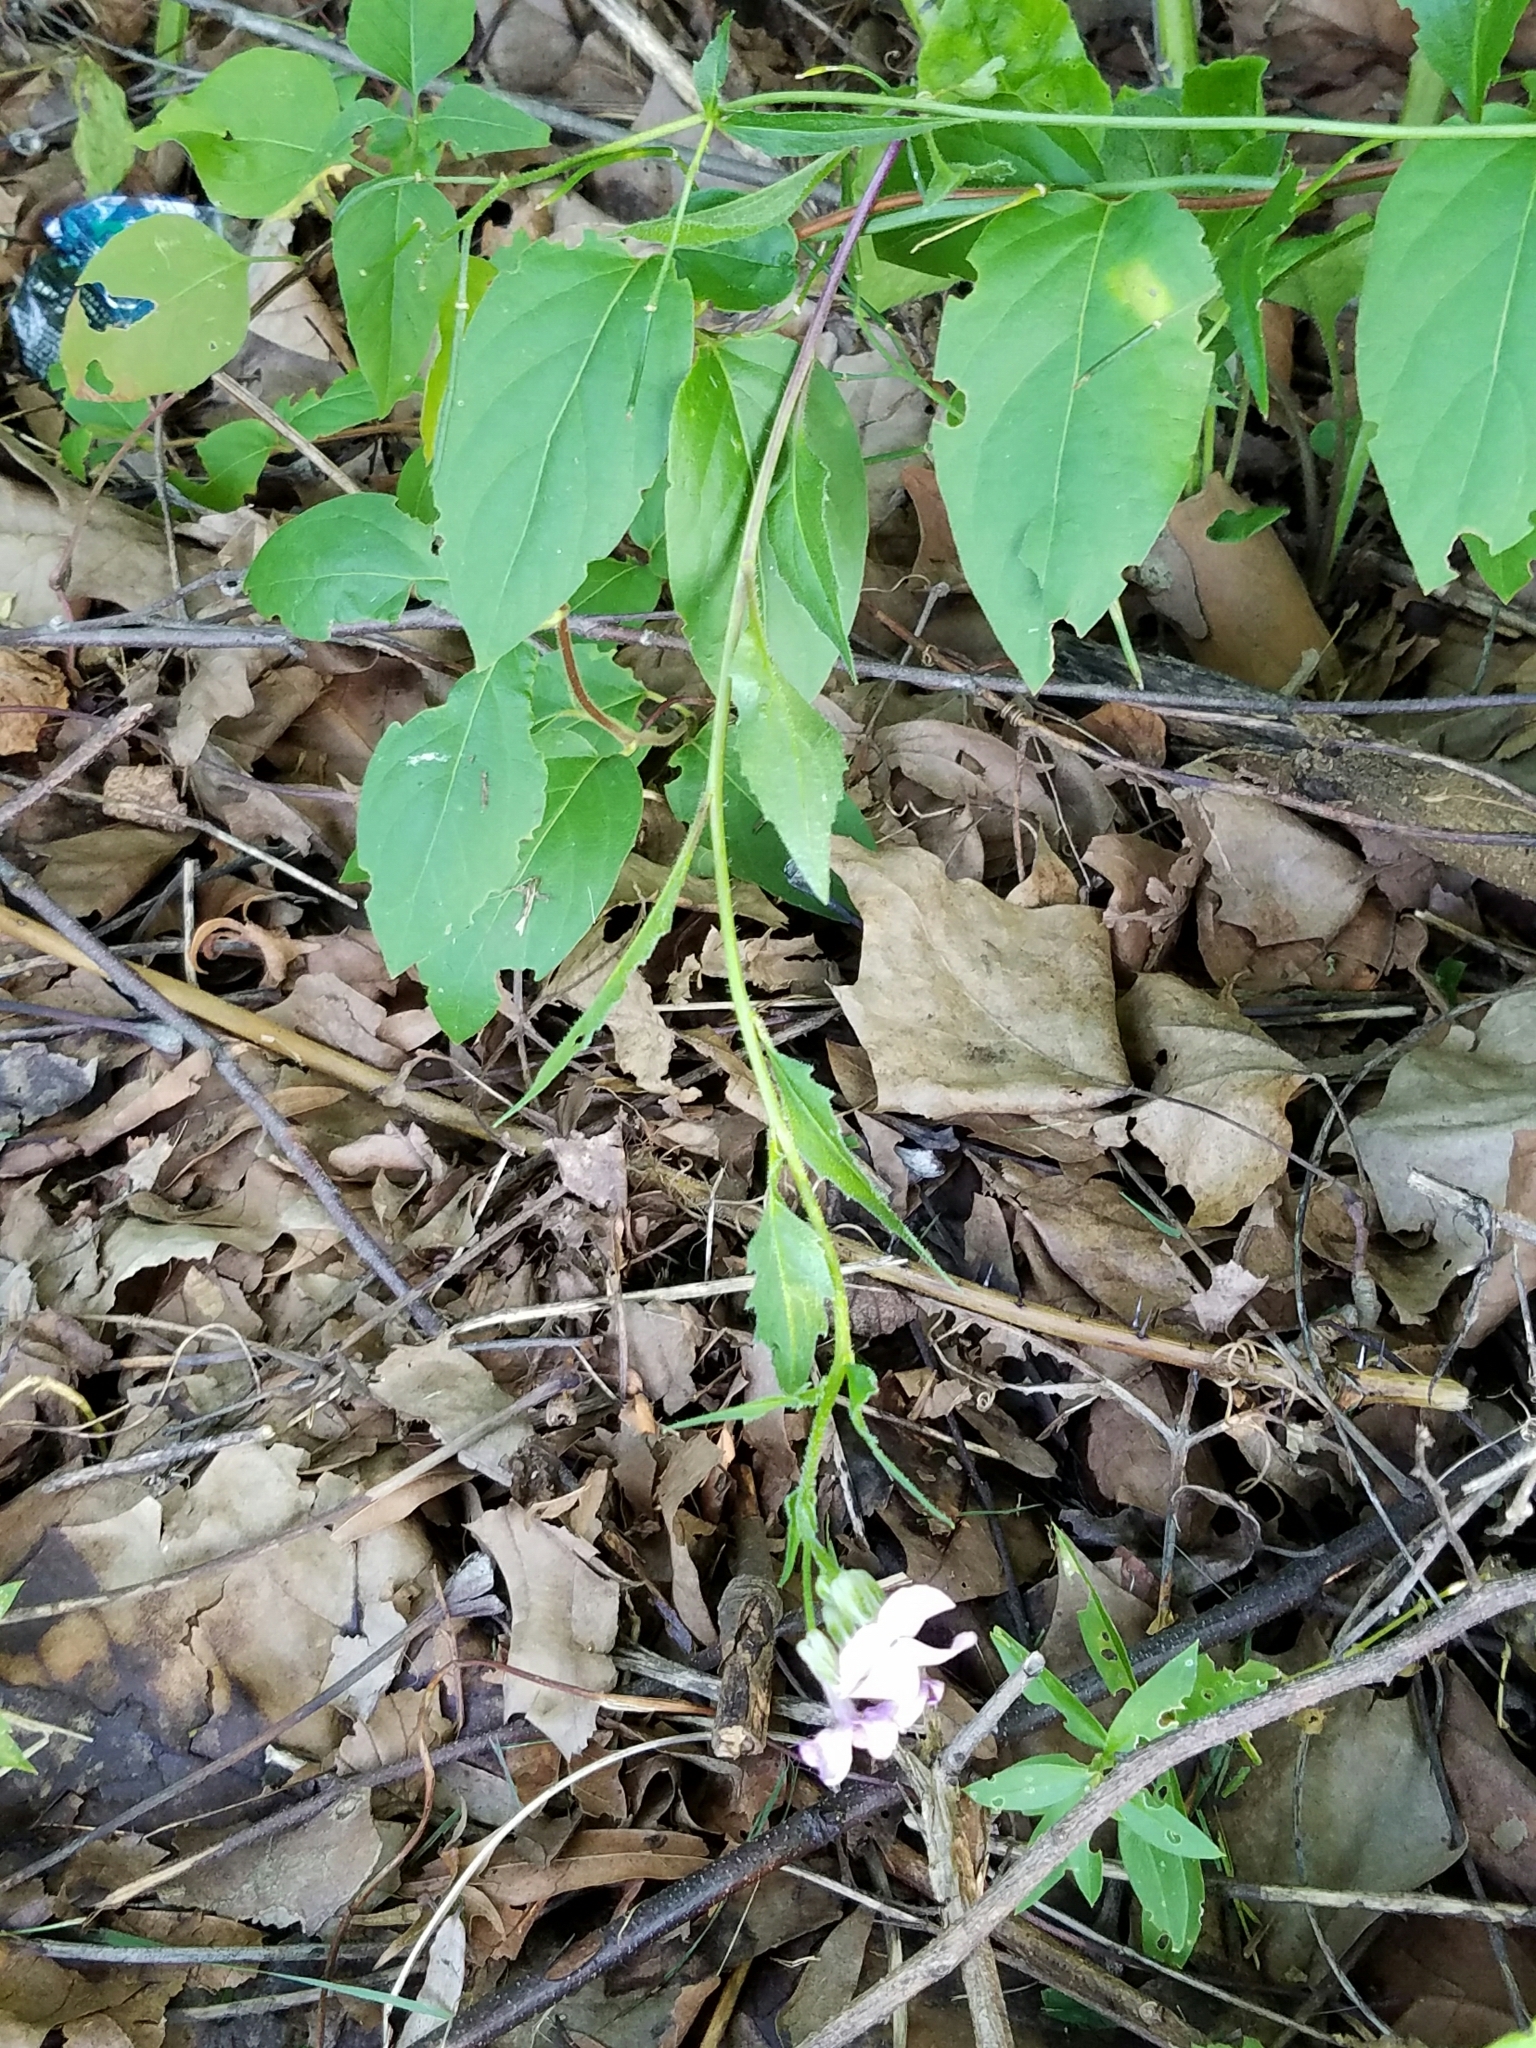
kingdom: Plantae
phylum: Tracheophyta
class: Magnoliopsida
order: Brassicales
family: Brassicaceae
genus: Hesperis
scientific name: Hesperis matronalis
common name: Dame's-violet
